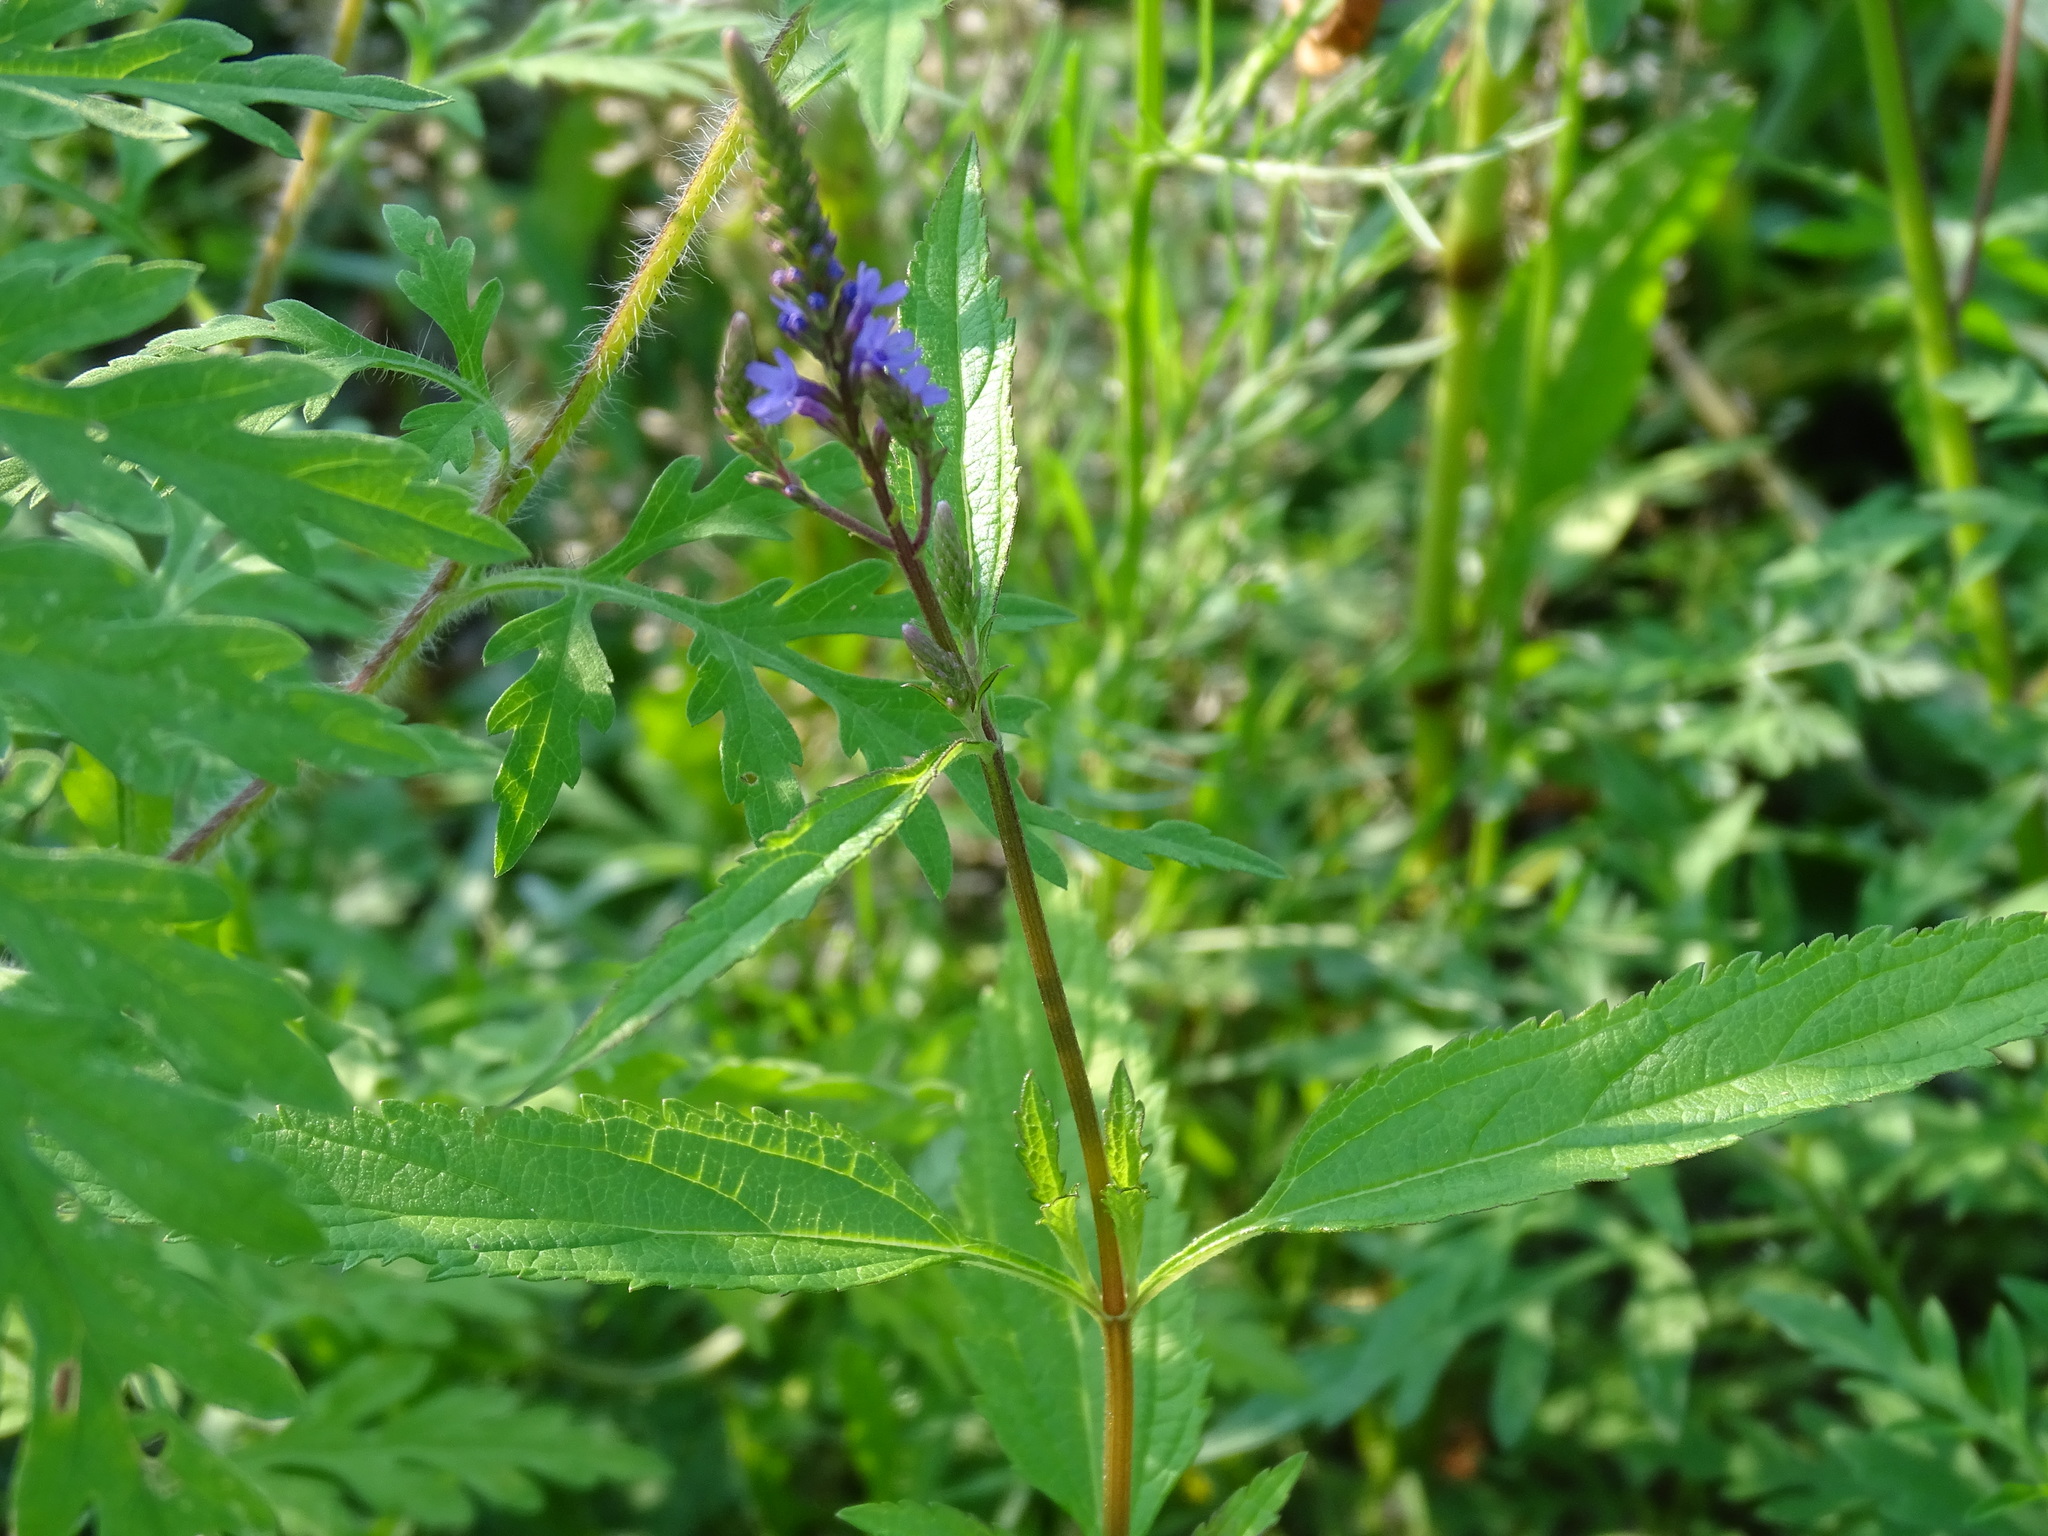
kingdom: Plantae
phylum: Tracheophyta
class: Magnoliopsida
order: Lamiales
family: Verbenaceae
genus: Verbena
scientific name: Verbena hastata
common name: American blue vervain
